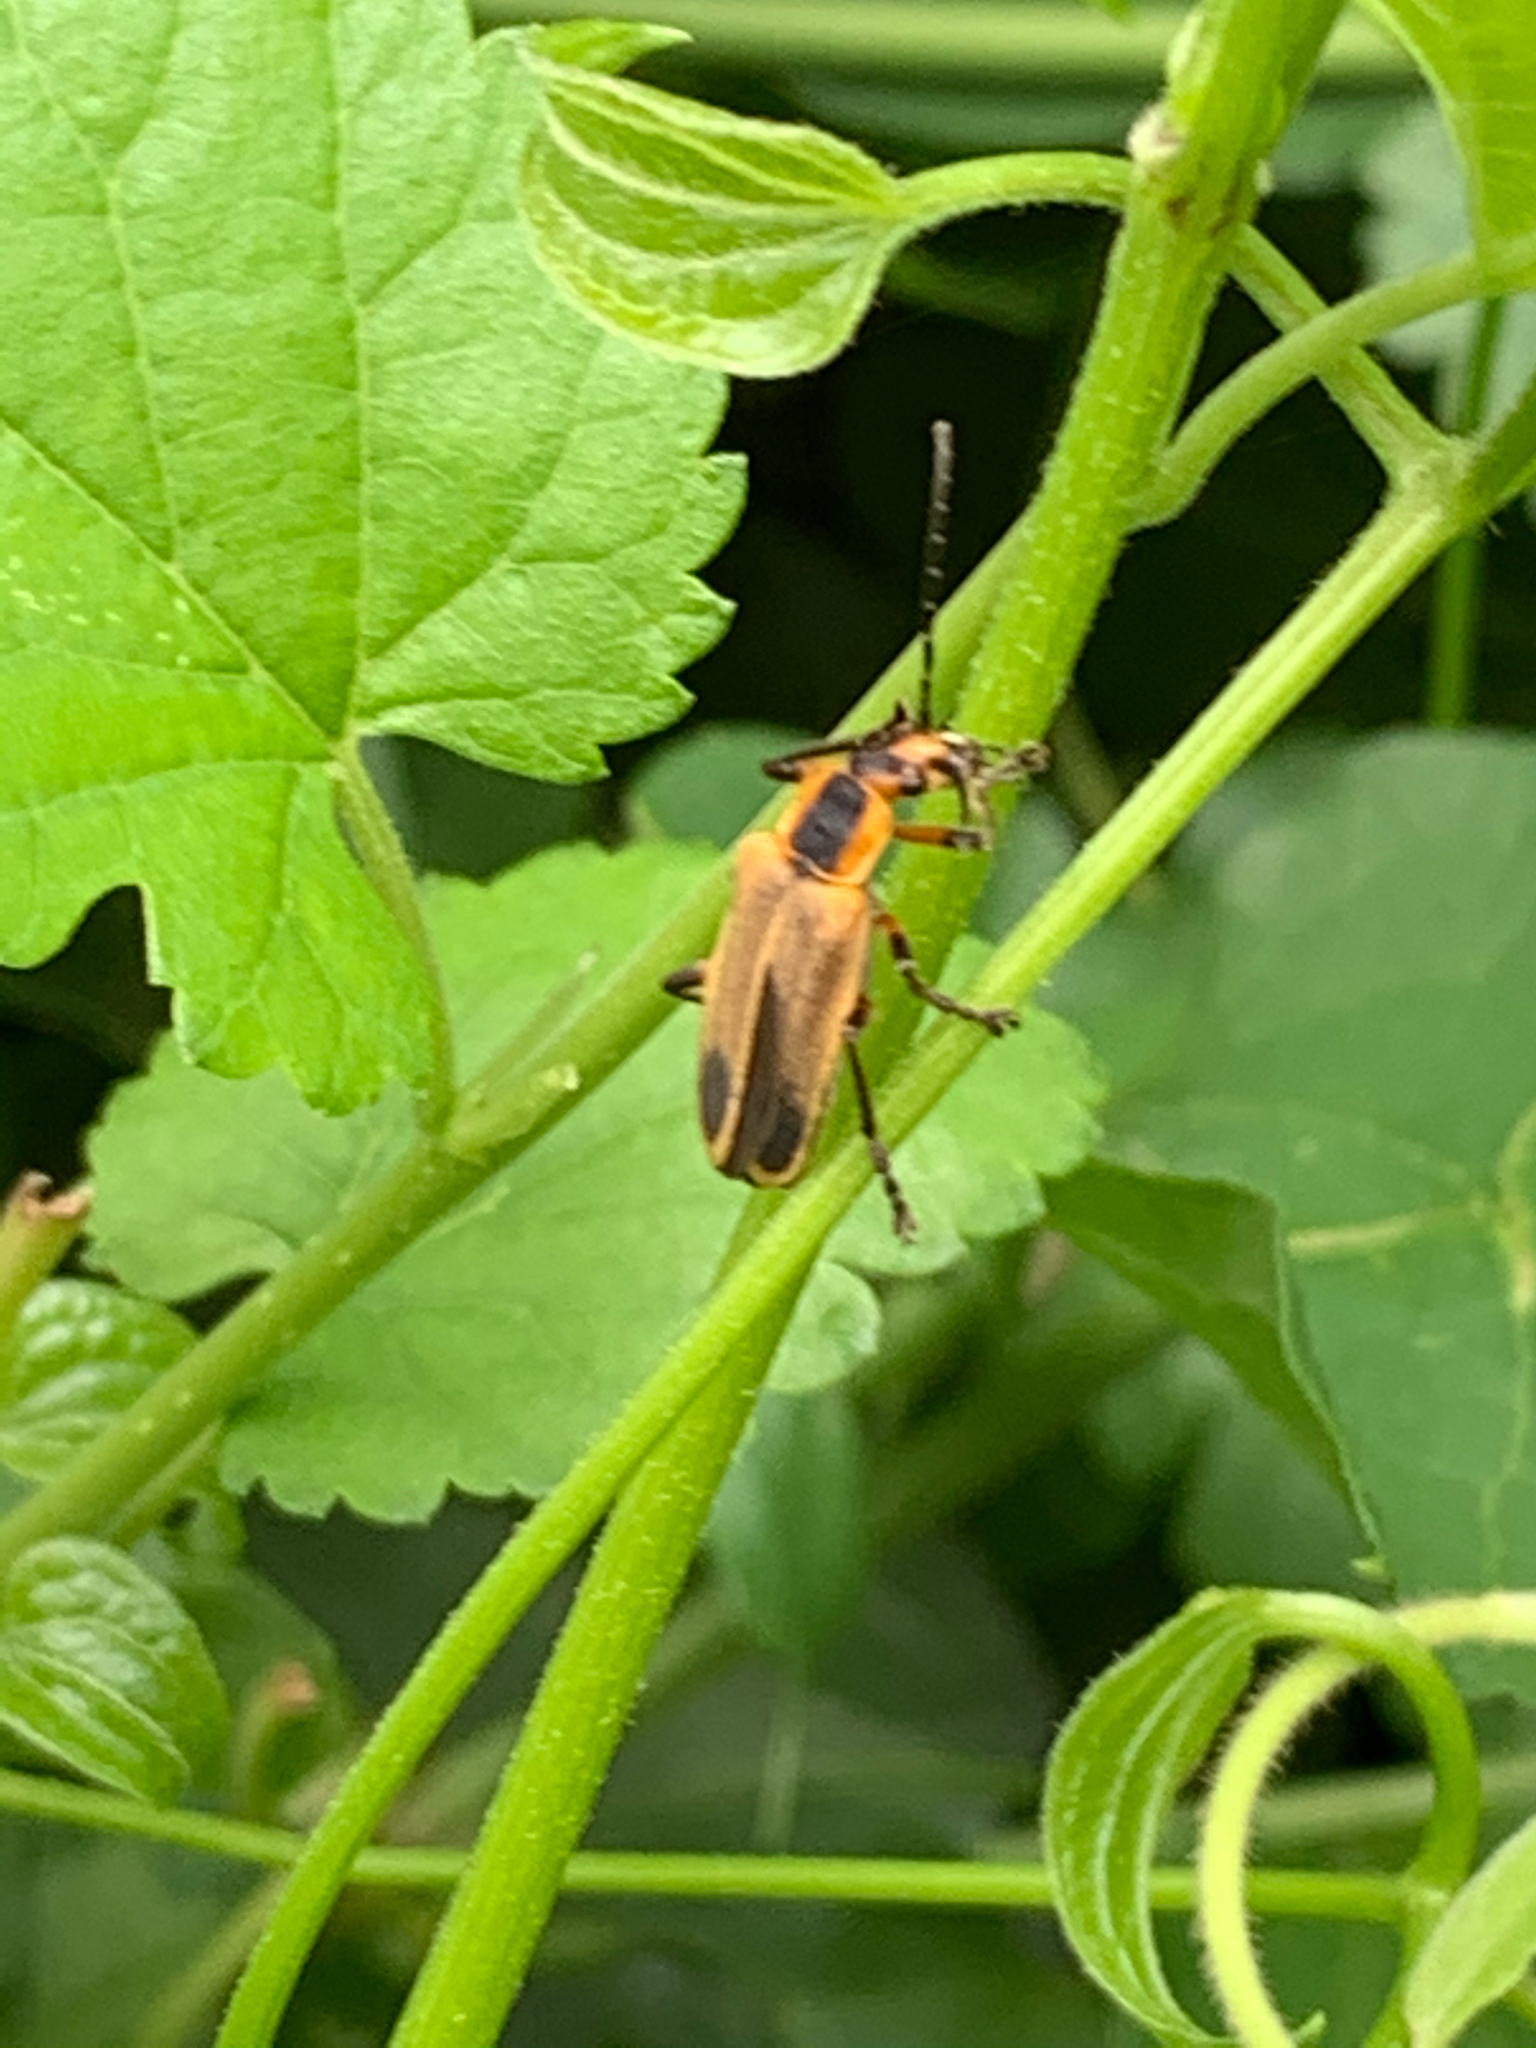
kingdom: Animalia
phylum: Arthropoda
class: Insecta
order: Coleoptera
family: Cantharidae
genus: Chauliognathus
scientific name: Chauliognathus marginatus
